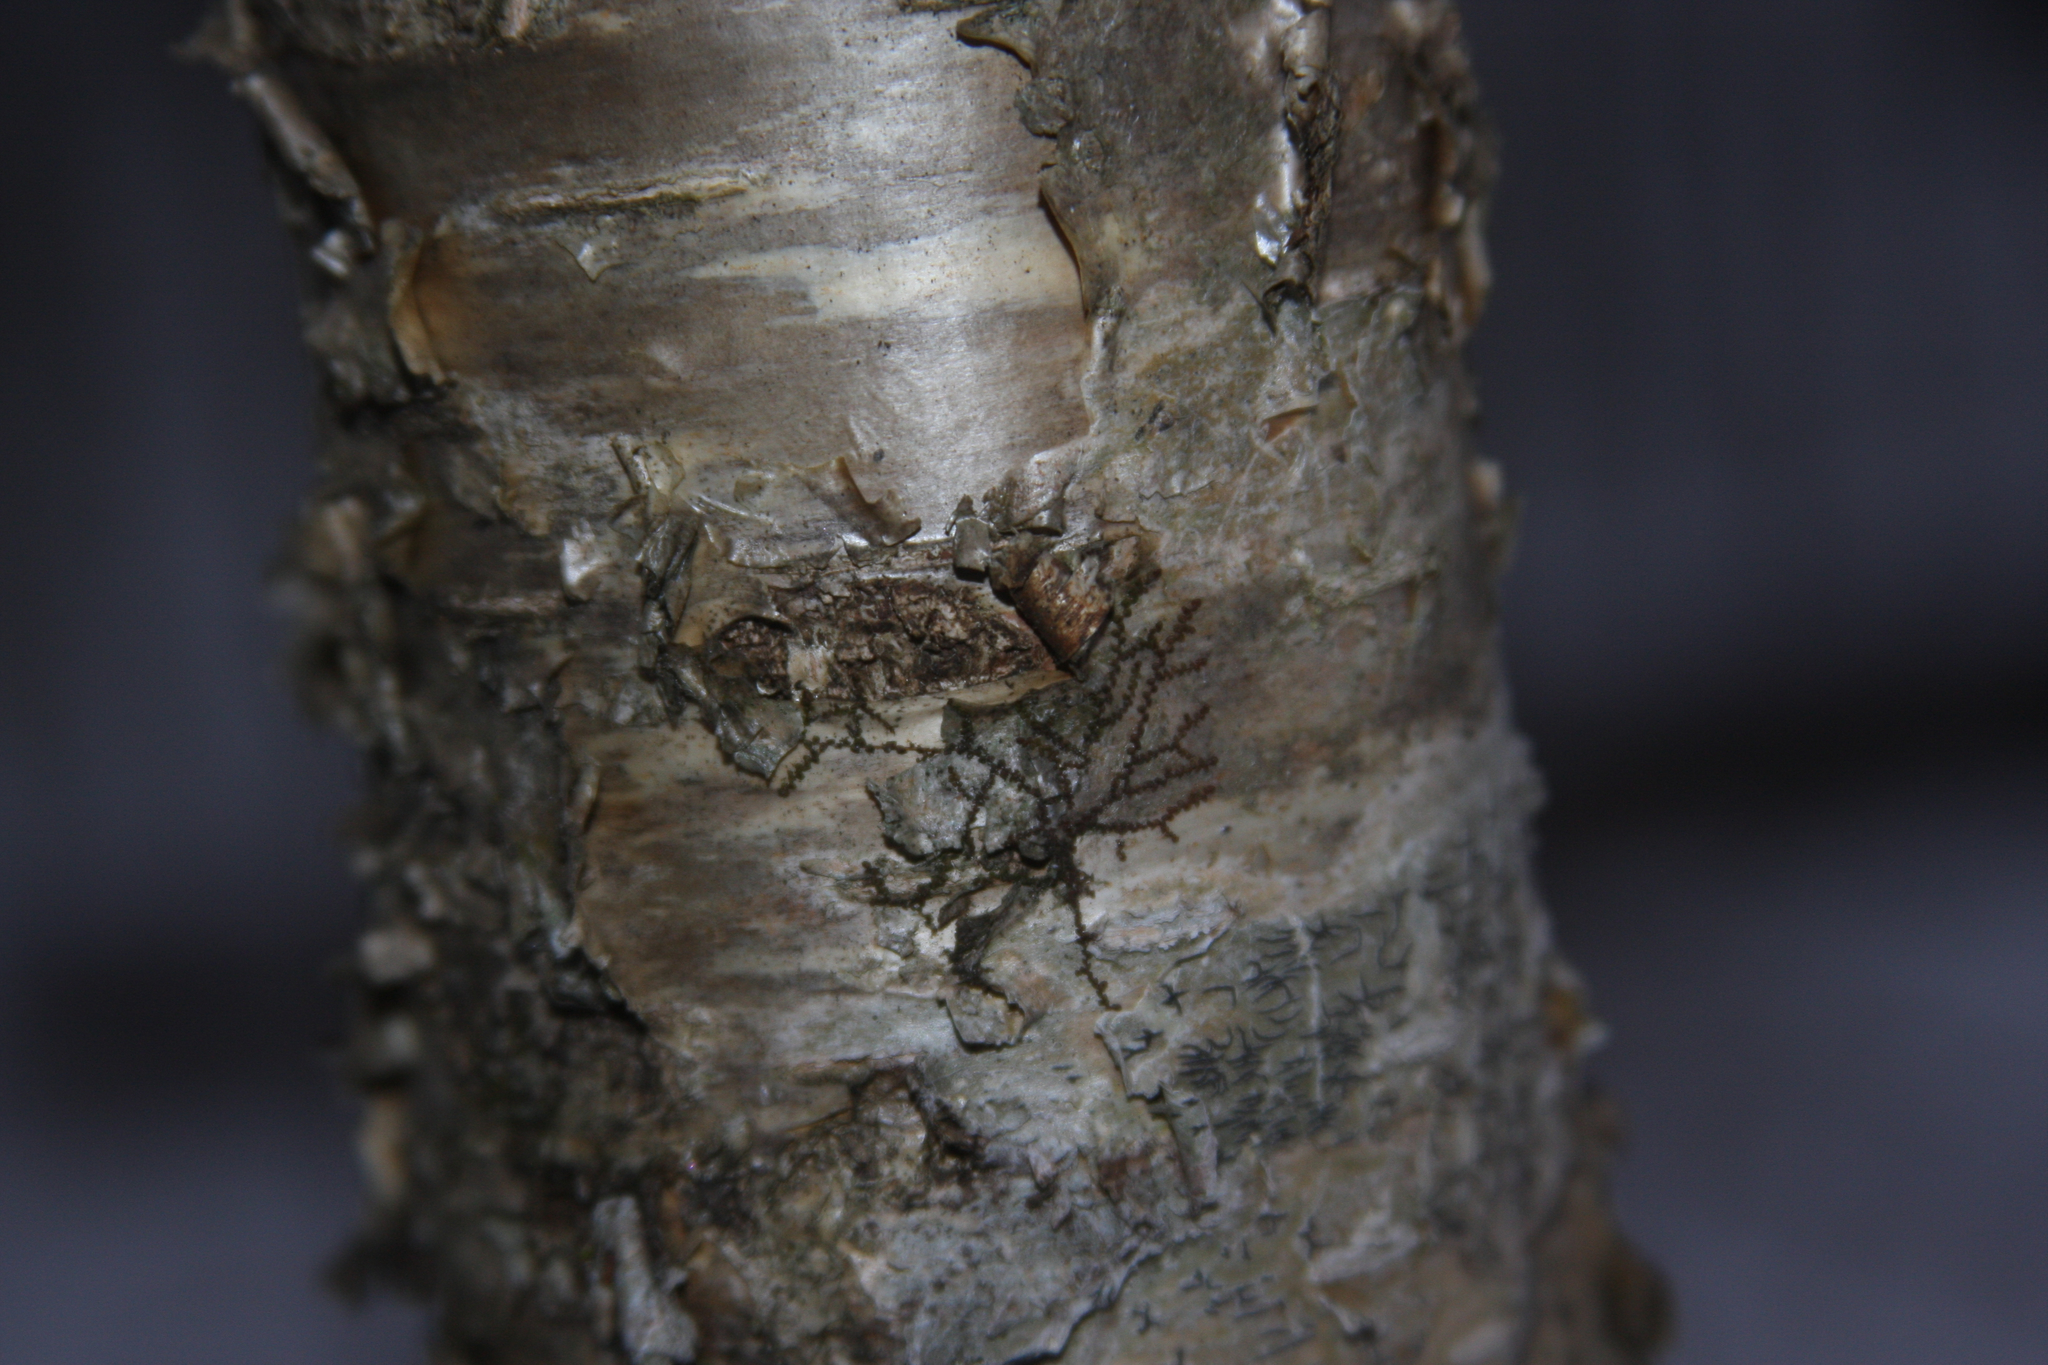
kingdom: Plantae
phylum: Marchantiophyta
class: Jungermanniopsida
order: Porellales
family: Frullaniaceae
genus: Frullania
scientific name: Frullania eboracensis
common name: New york scalewort
